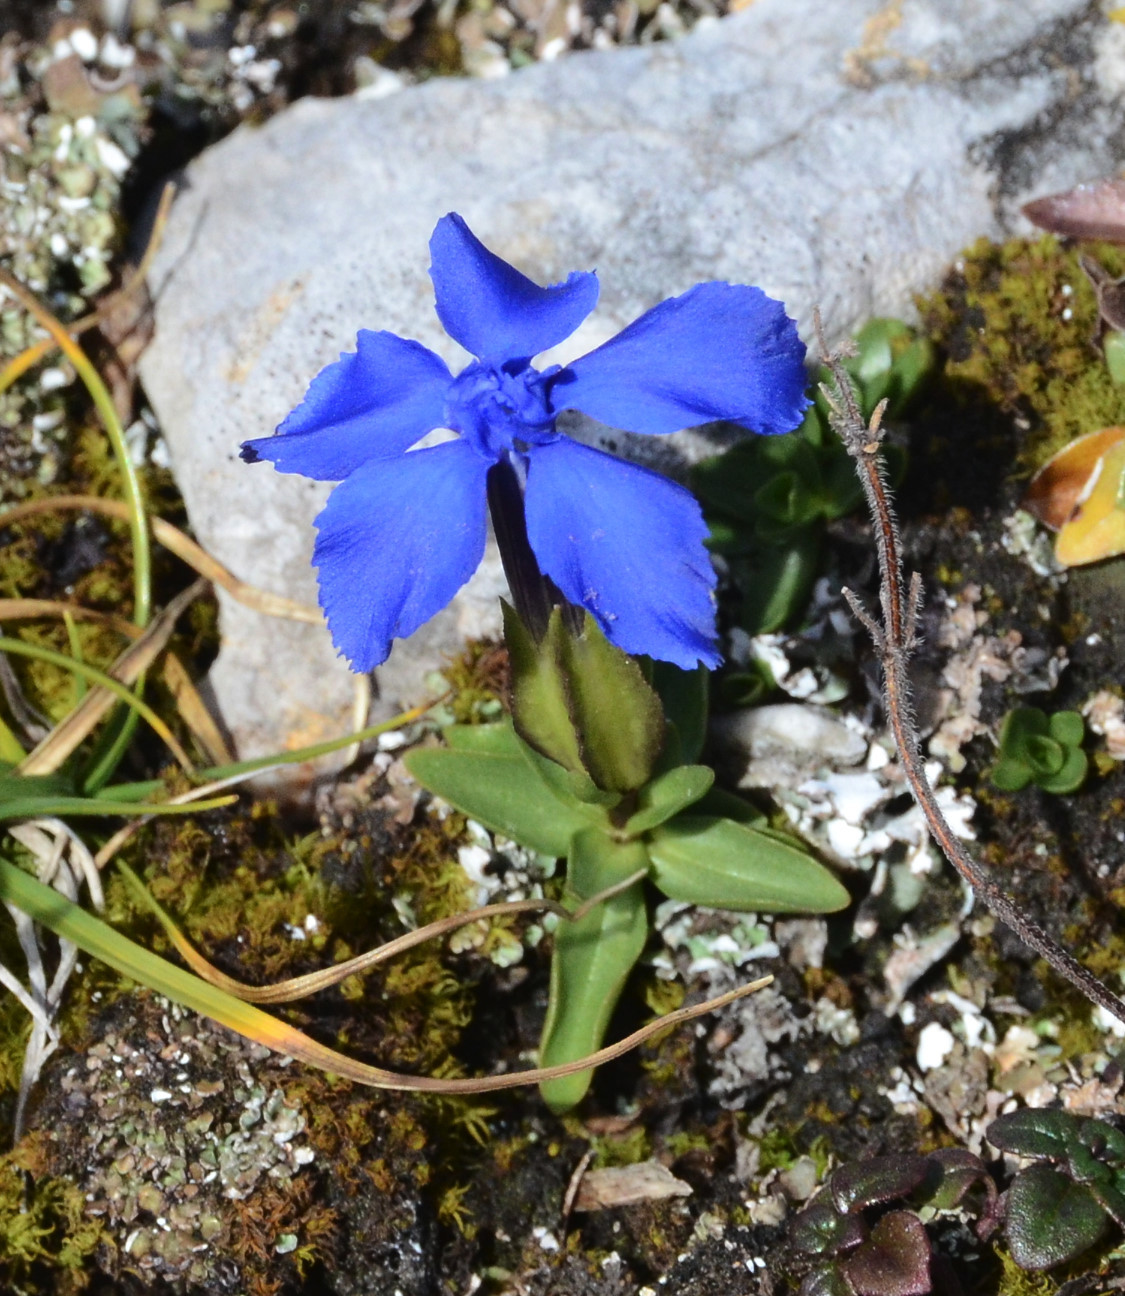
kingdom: Plantae
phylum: Tracheophyta
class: Magnoliopsida
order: Gentianales
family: Gentianaceae
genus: Gentiana
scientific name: Gentiana verna
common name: Spring gentian
